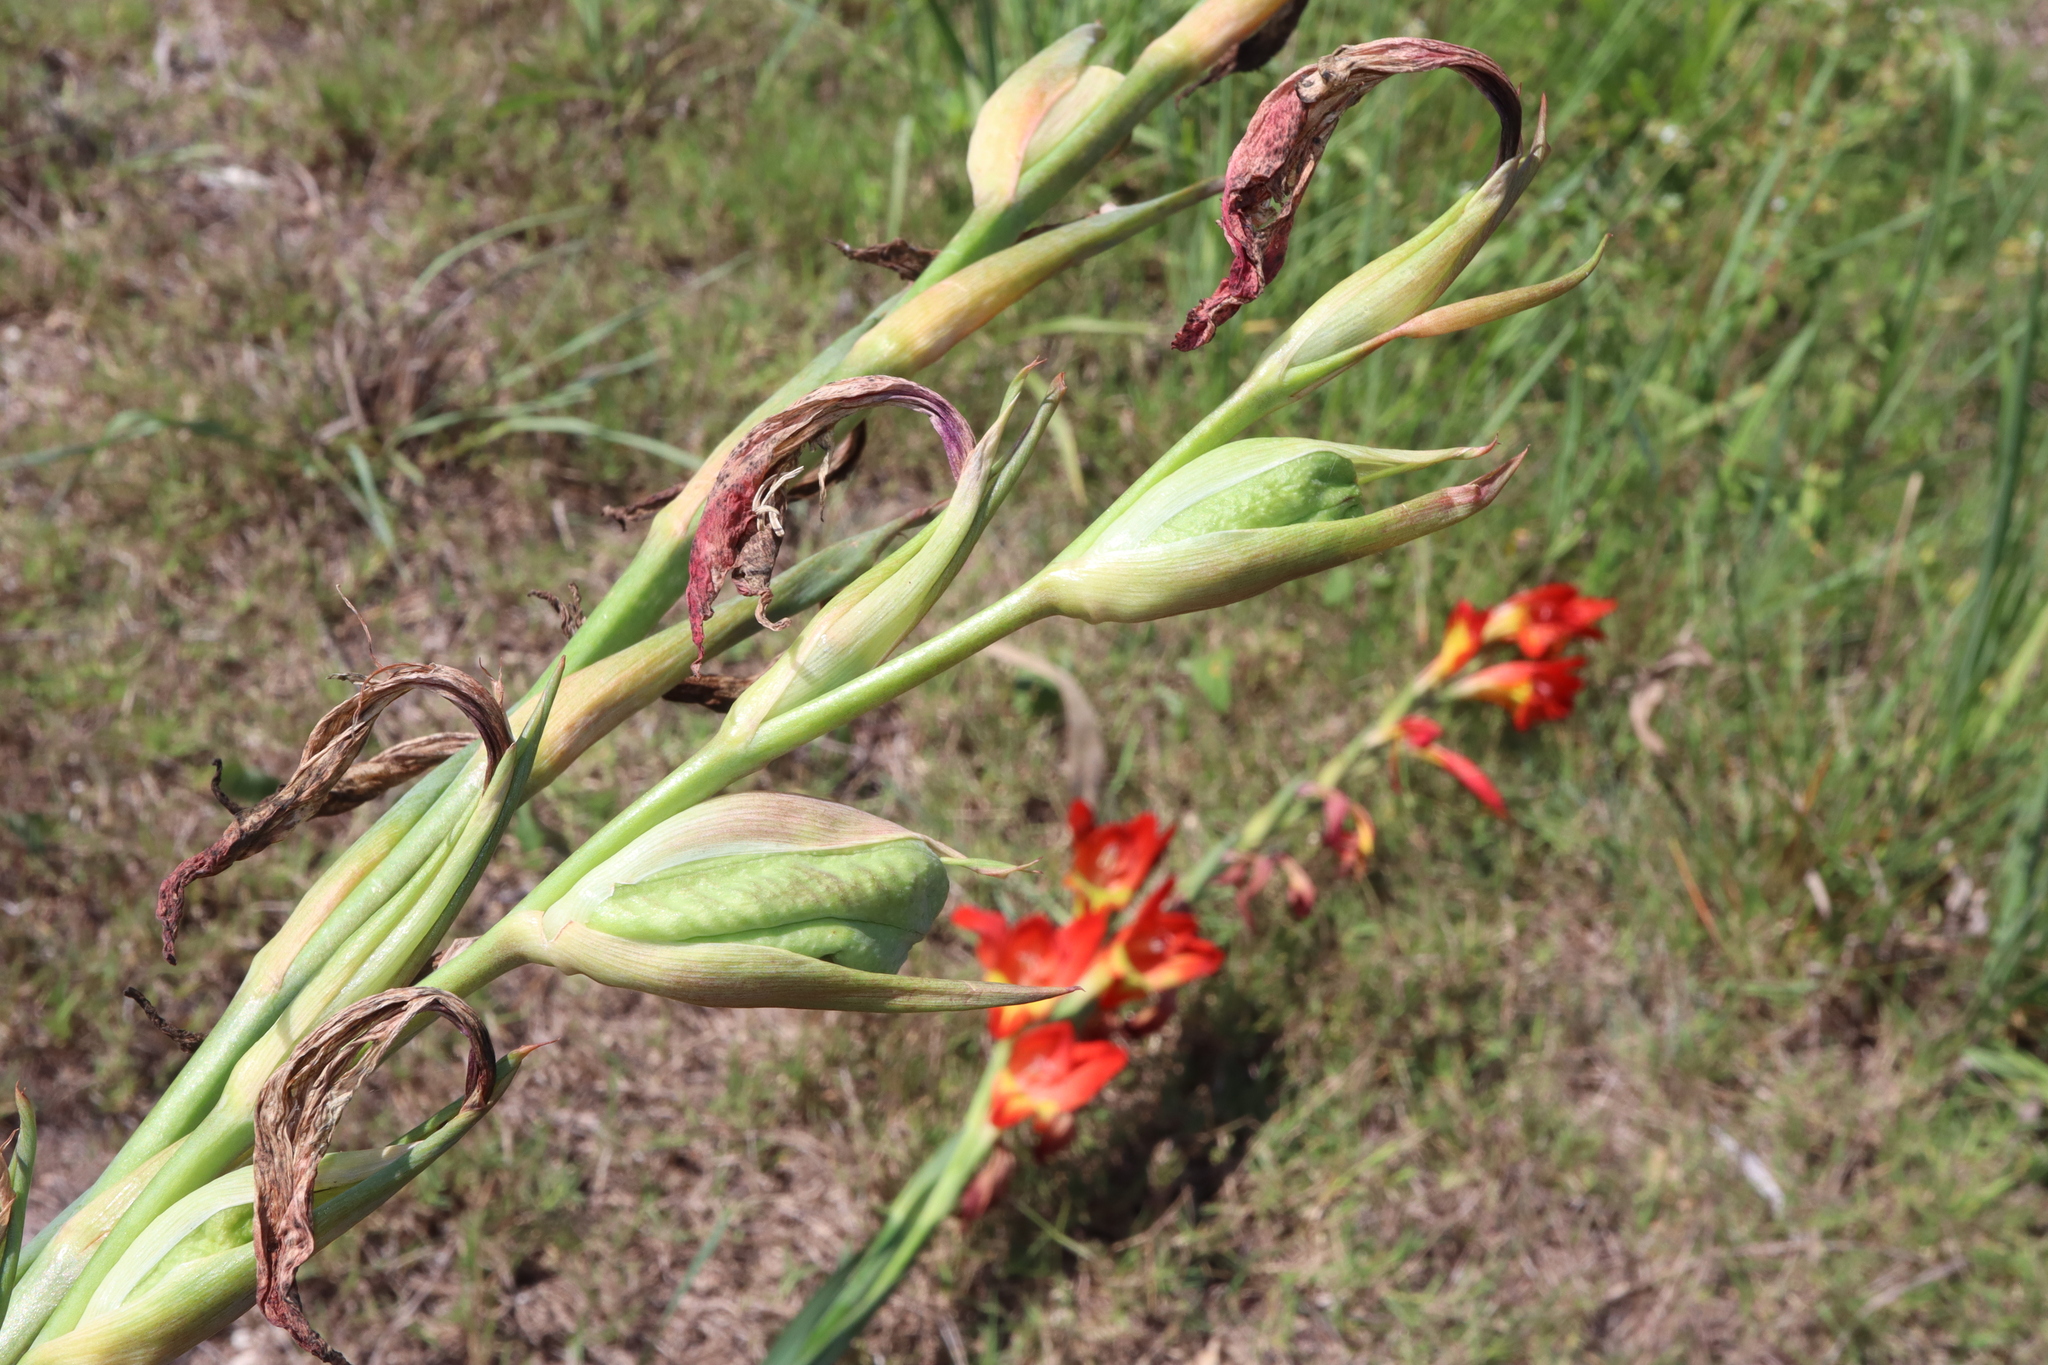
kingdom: Plantae
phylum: Tracheophyta
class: Liliopsida
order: Asparagales
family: Iridaceae
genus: Gladiolus
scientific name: Gladiolus dalenii
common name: Cornflag
